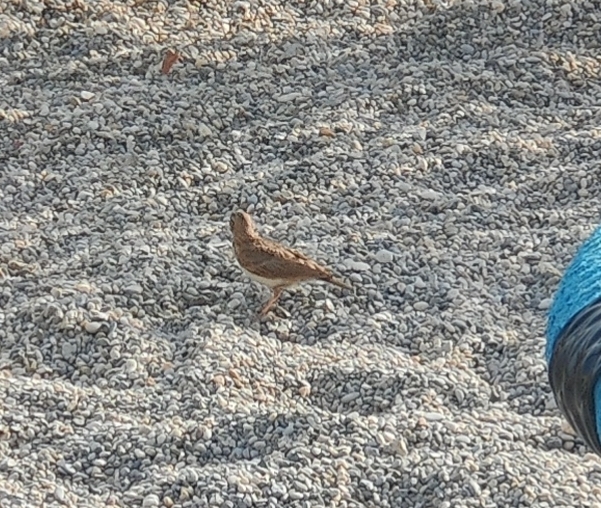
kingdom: Animalia
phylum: Chordata
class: Aves
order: Passeriformes
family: Alaudidae
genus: Galerida
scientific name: Galerida cristata
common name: Crested lark
